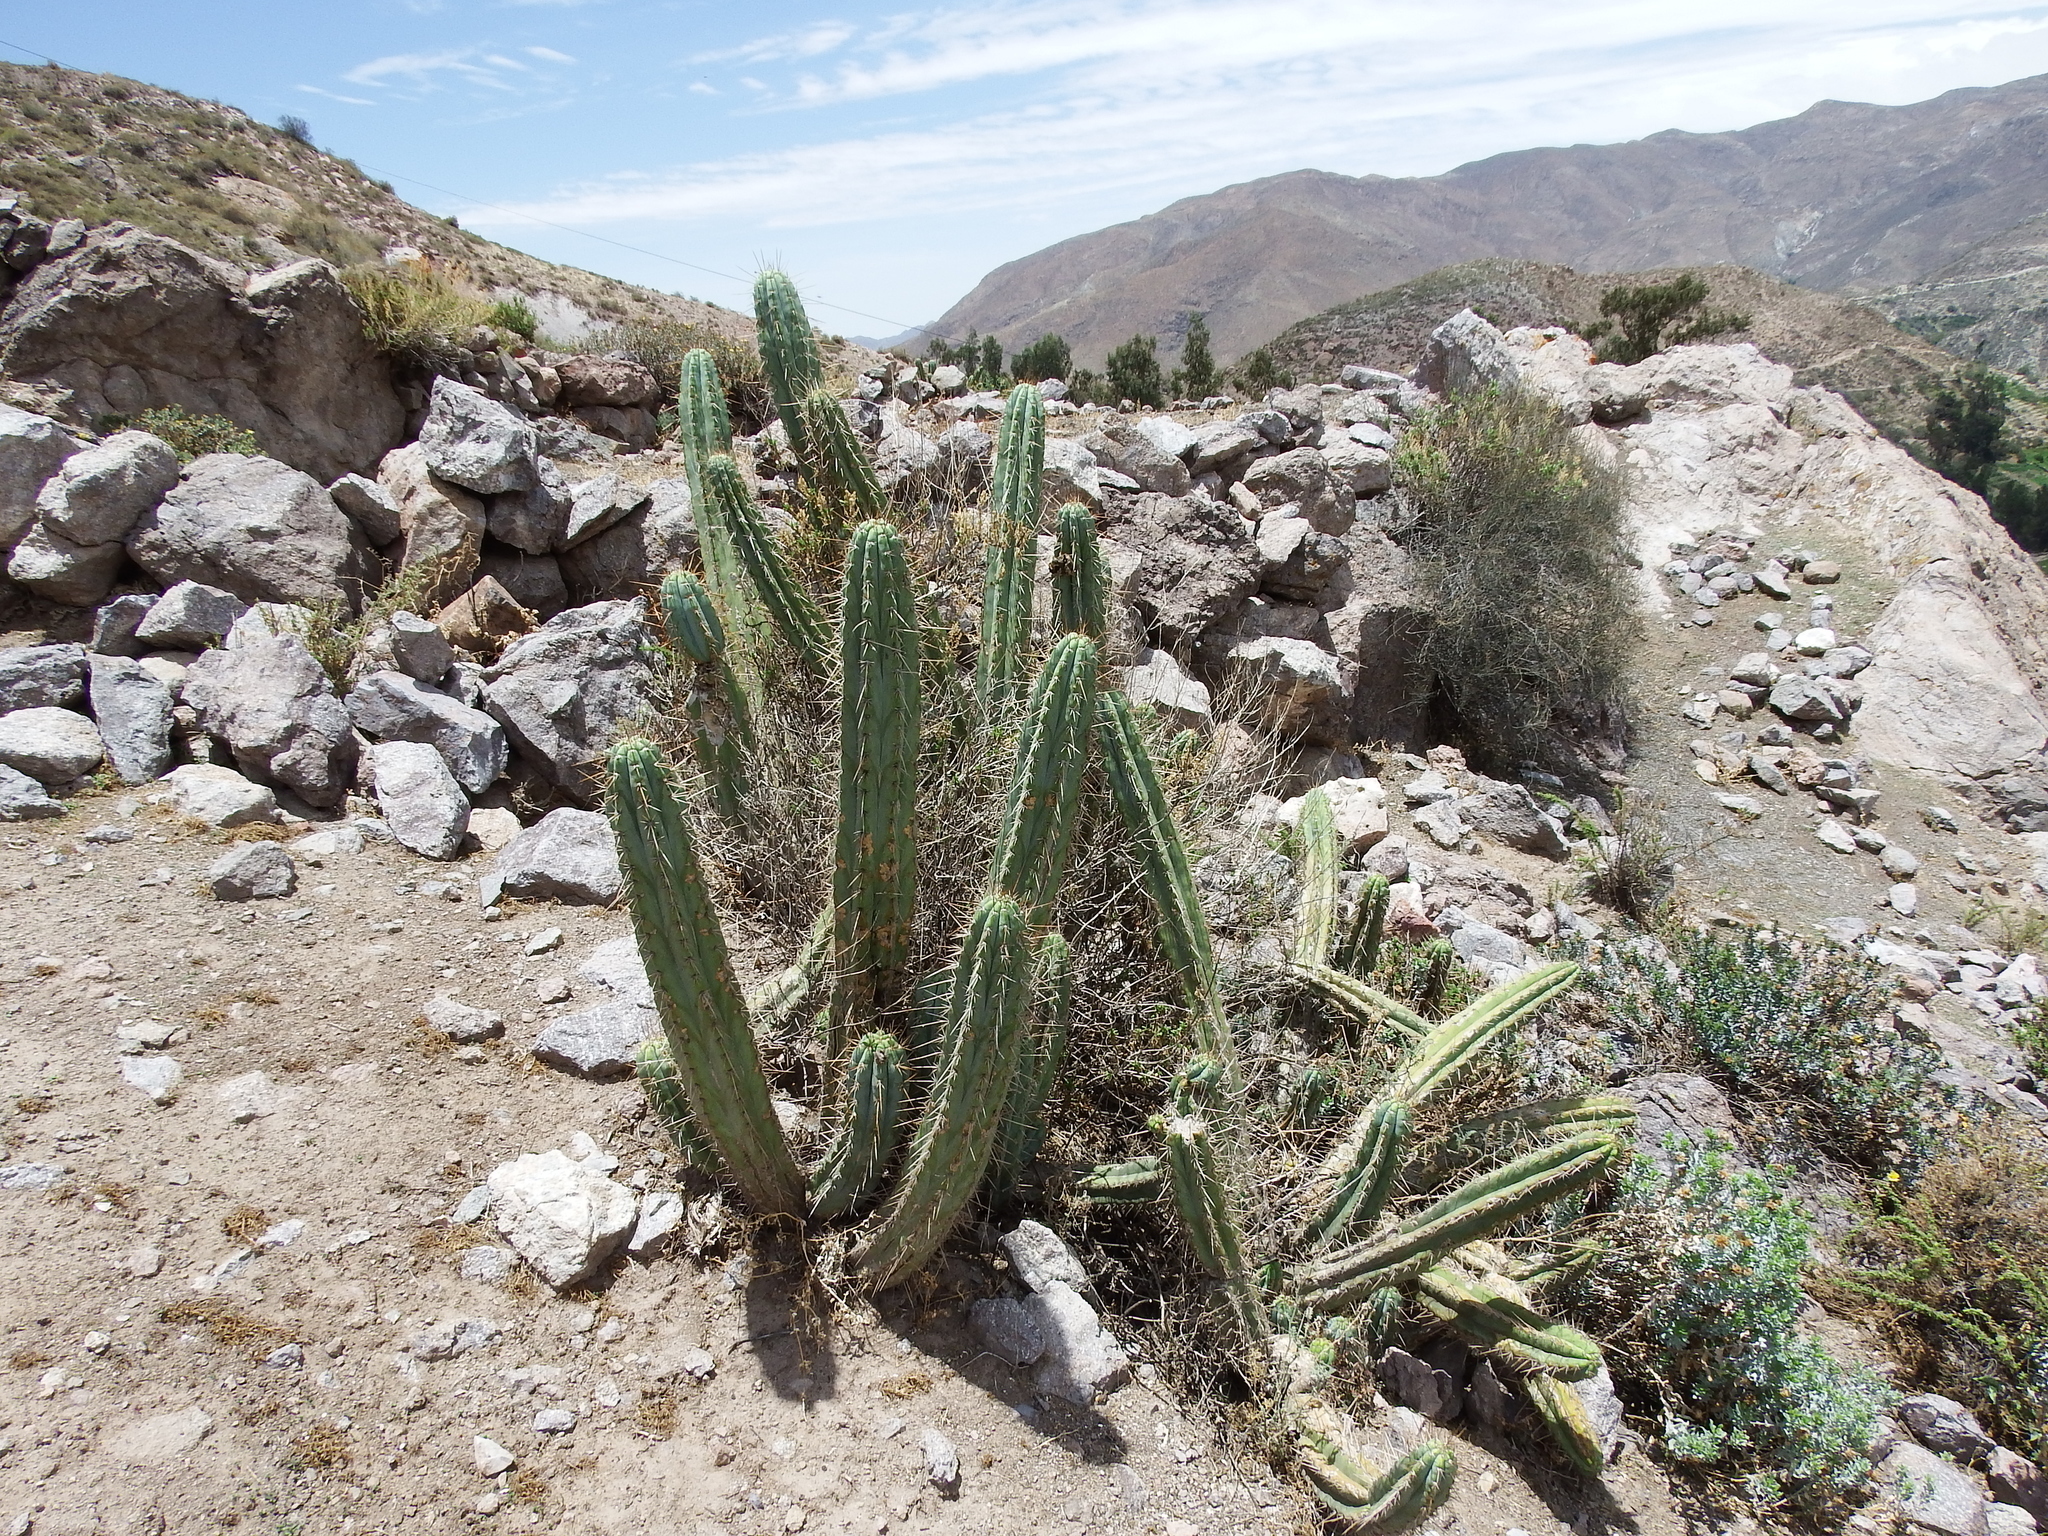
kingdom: Plantae
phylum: Tracheophyta
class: Magnoliopsida
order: Caryophyllales
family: Cactaceae
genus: Trichocereus
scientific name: Trichocereus macrogonus
